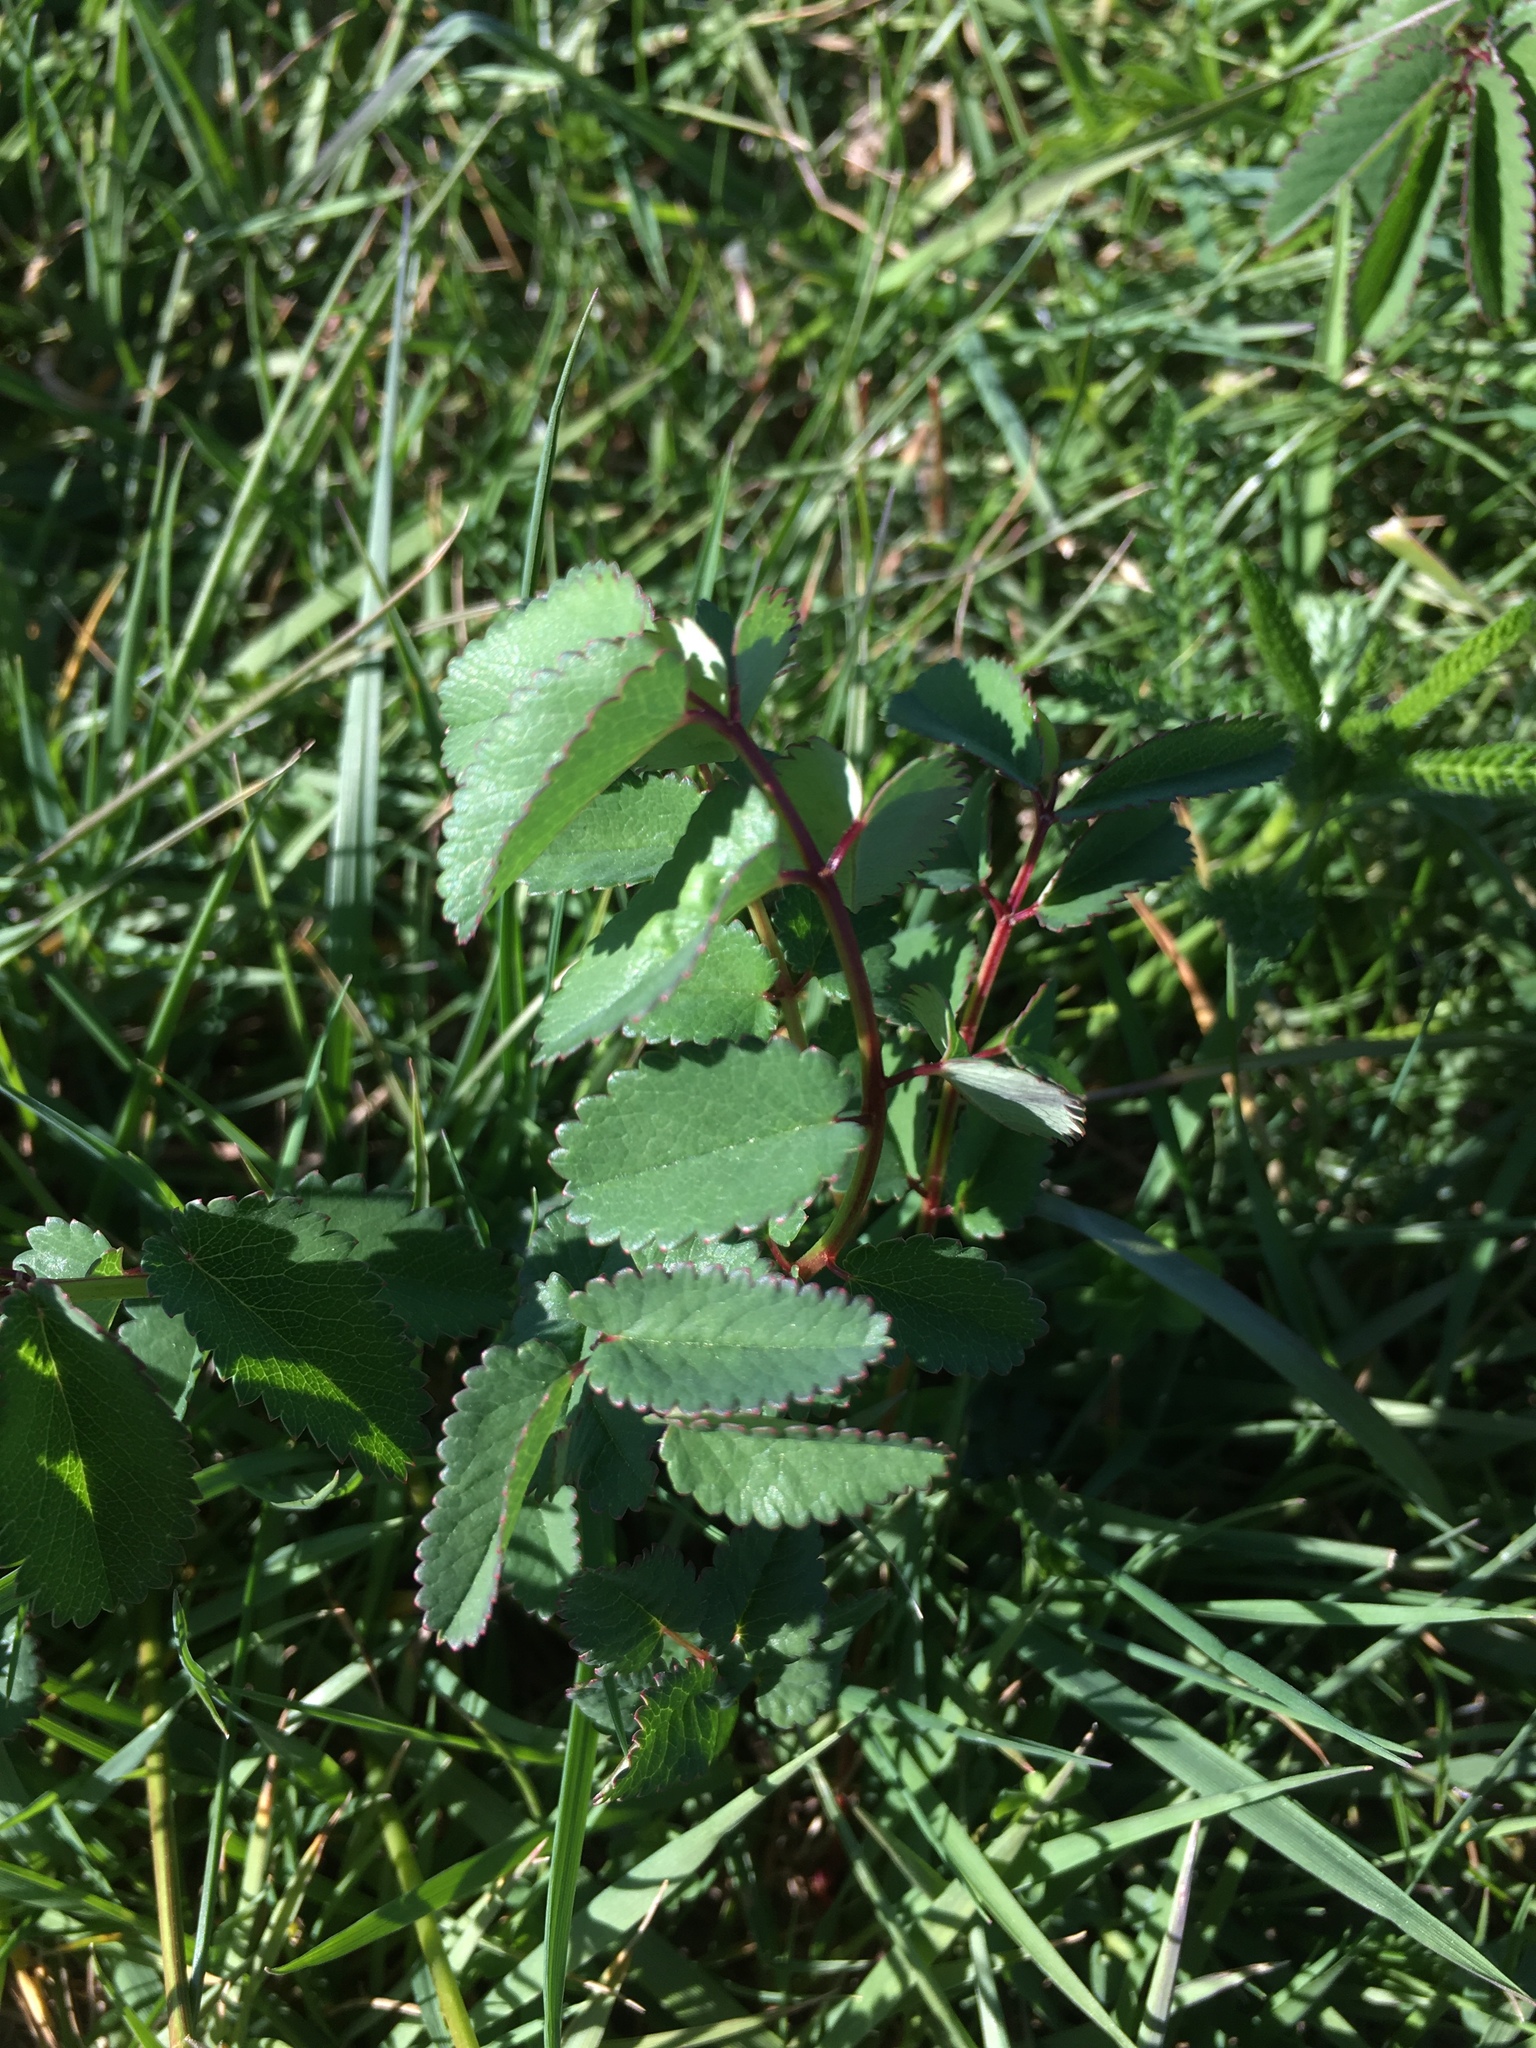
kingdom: Plantae
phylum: Tracheophyta
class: Magnoliopsida
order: Rosales
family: Rosaceae
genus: Sanguisorba
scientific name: Sanguisorba officinalis
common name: Great burnet
